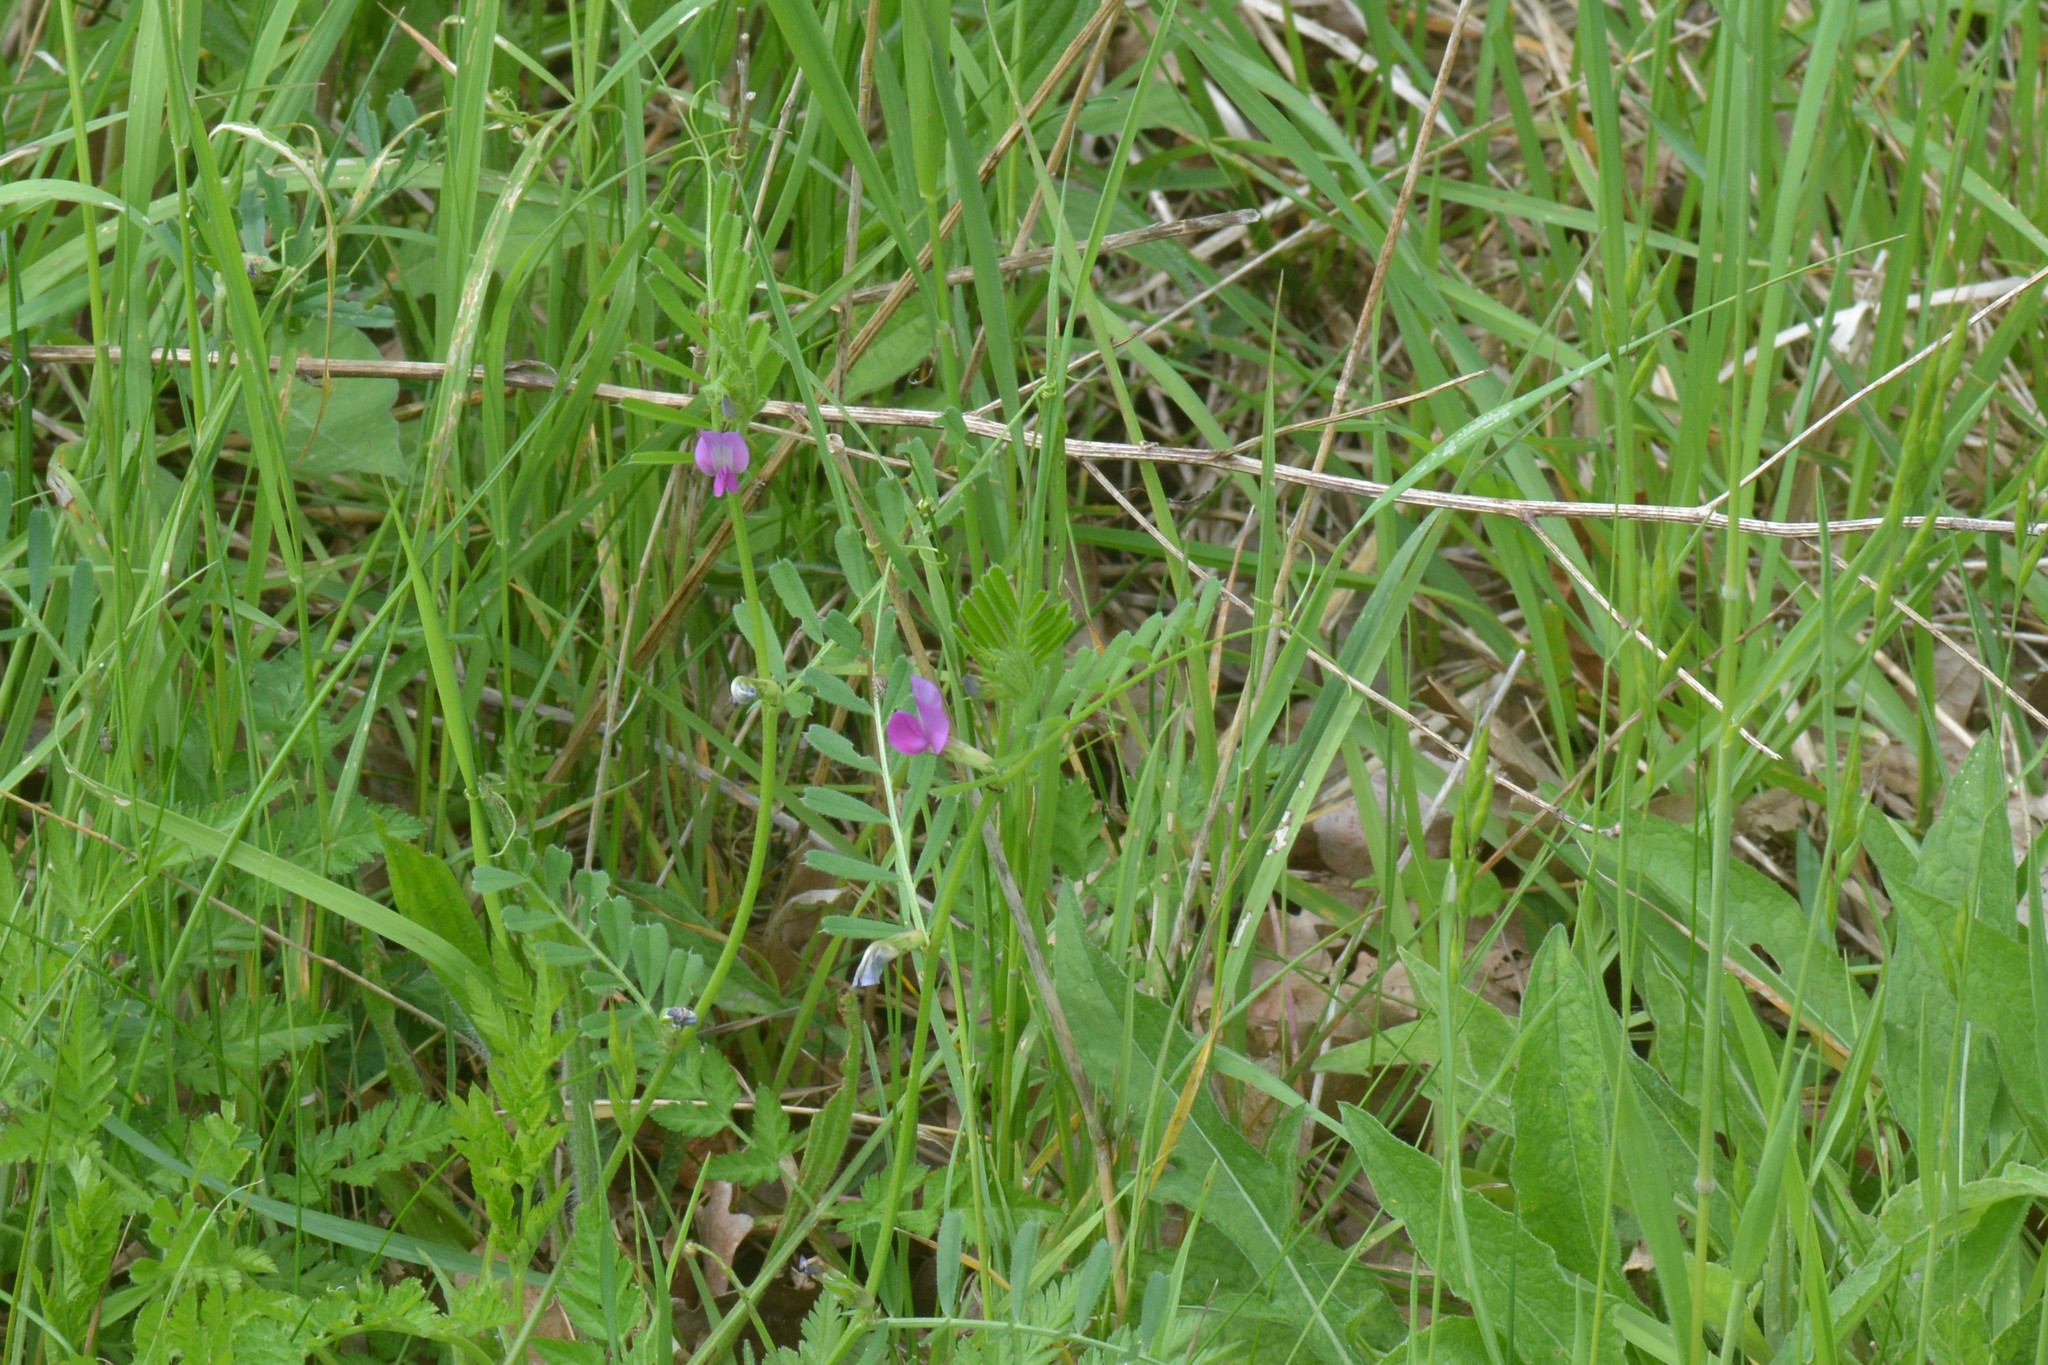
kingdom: Plantae
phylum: Tracheophyta
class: Magnoliopsida
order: Fabales
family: Fabaceae
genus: Vicia
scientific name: Vicia sativa
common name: Garden vetch
